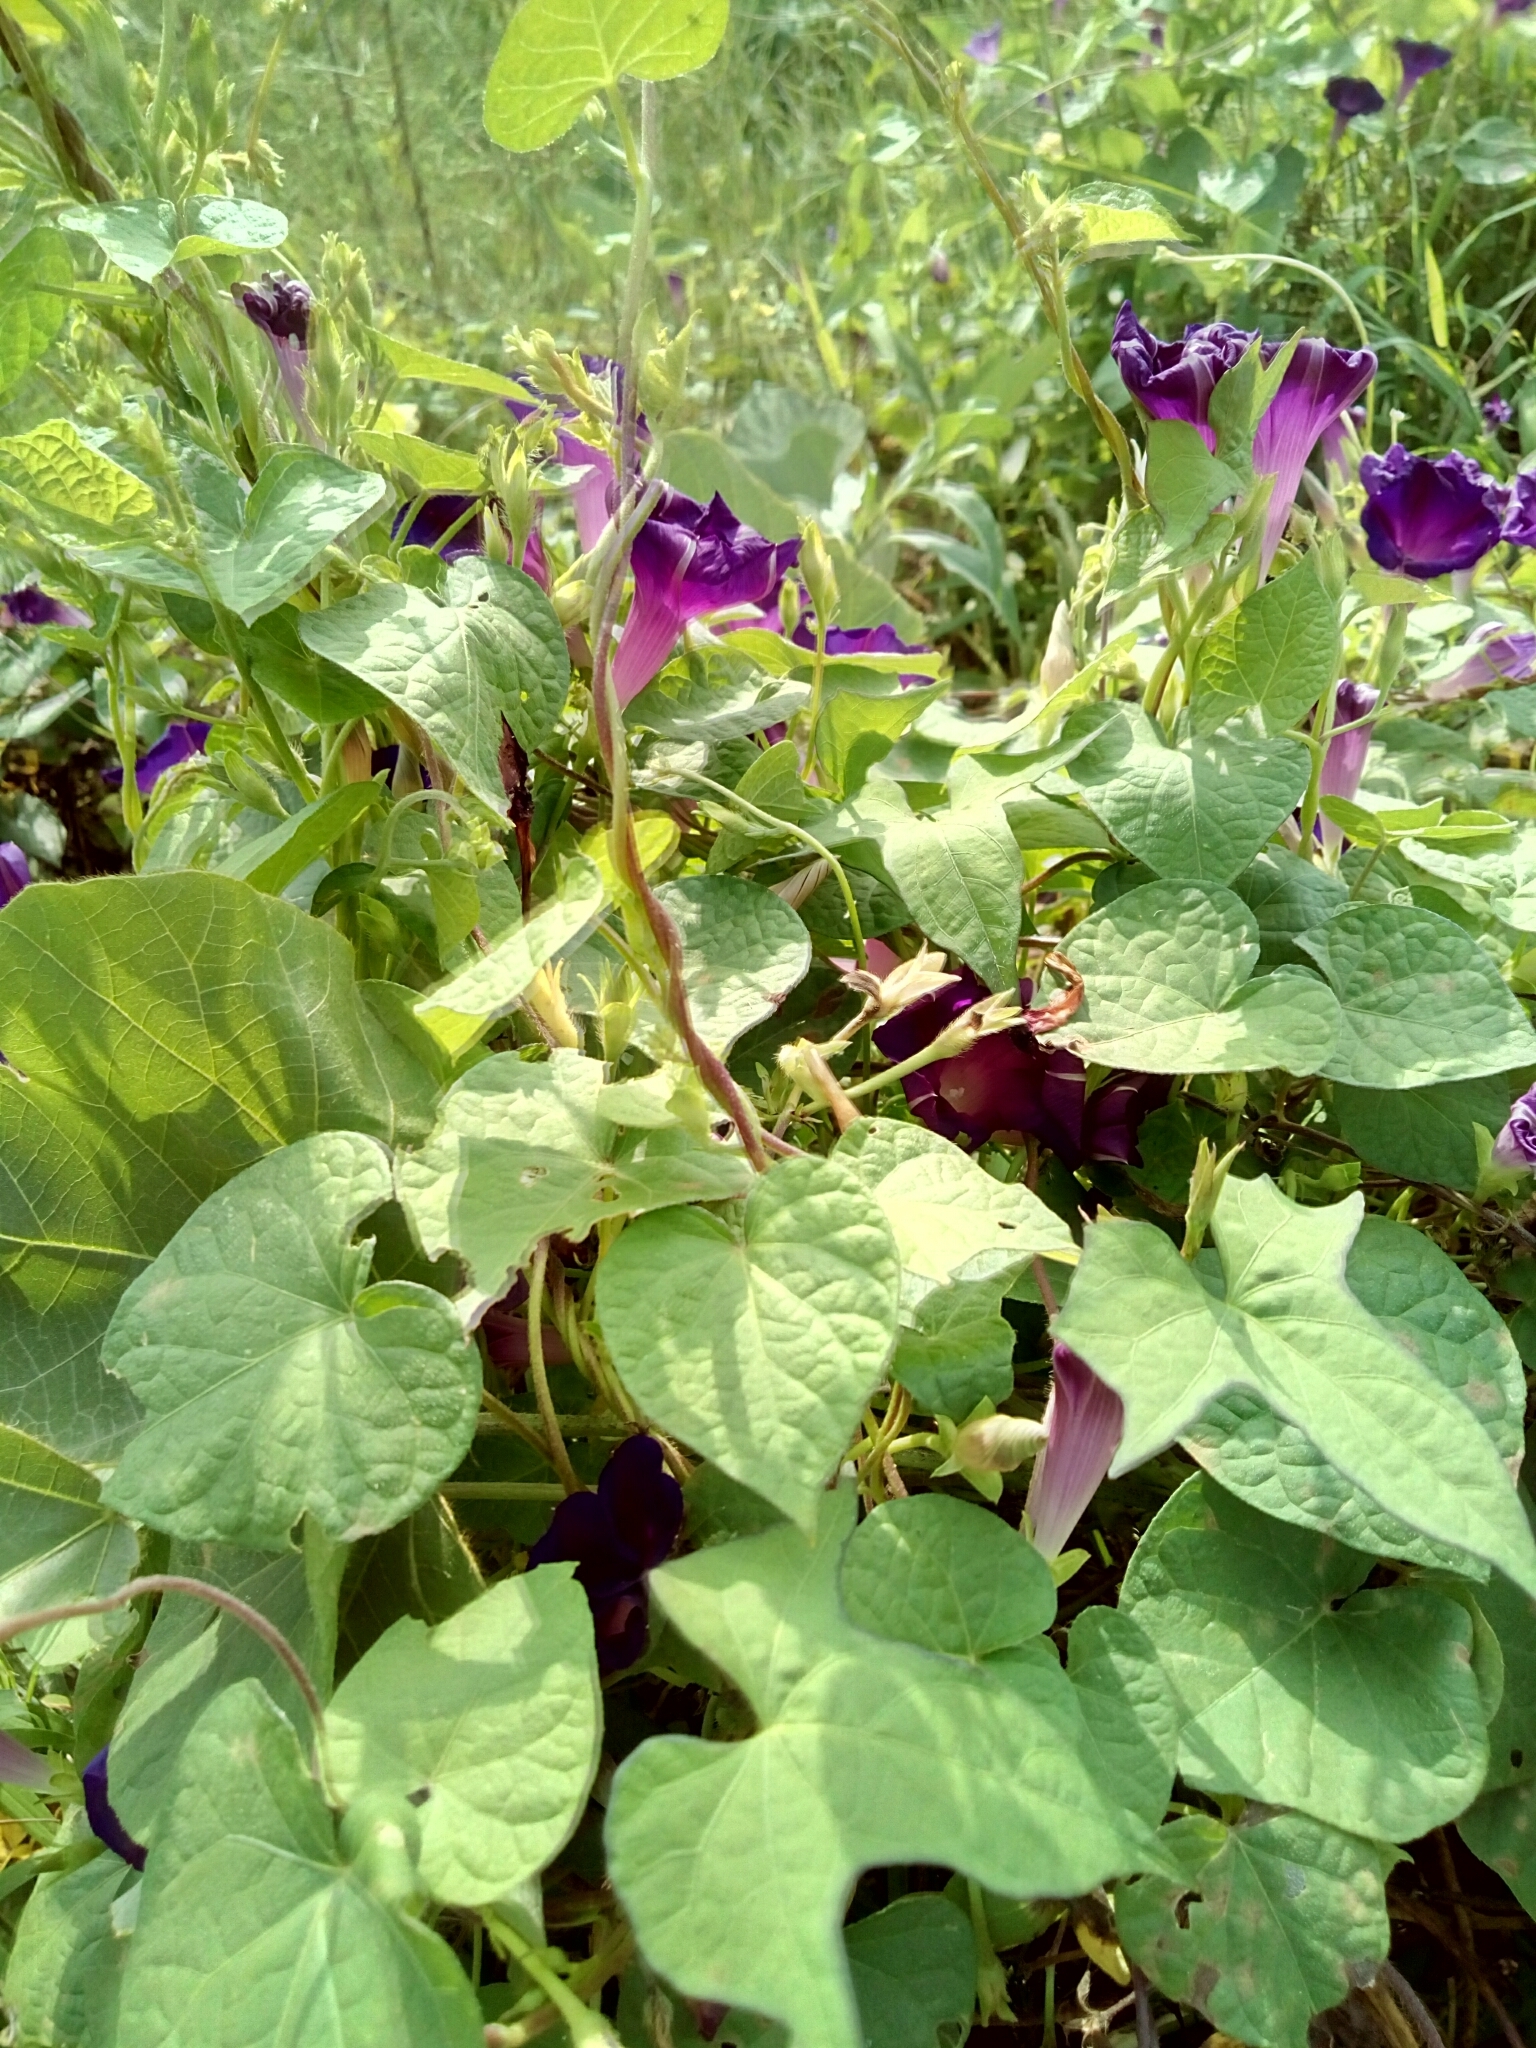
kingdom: Plantae
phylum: Tracheophyta
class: Magnoliopsida
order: Solanales
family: Convolvulaceae
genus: Ipomoea
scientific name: Ipomoea purpurea
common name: Common morning-glory
